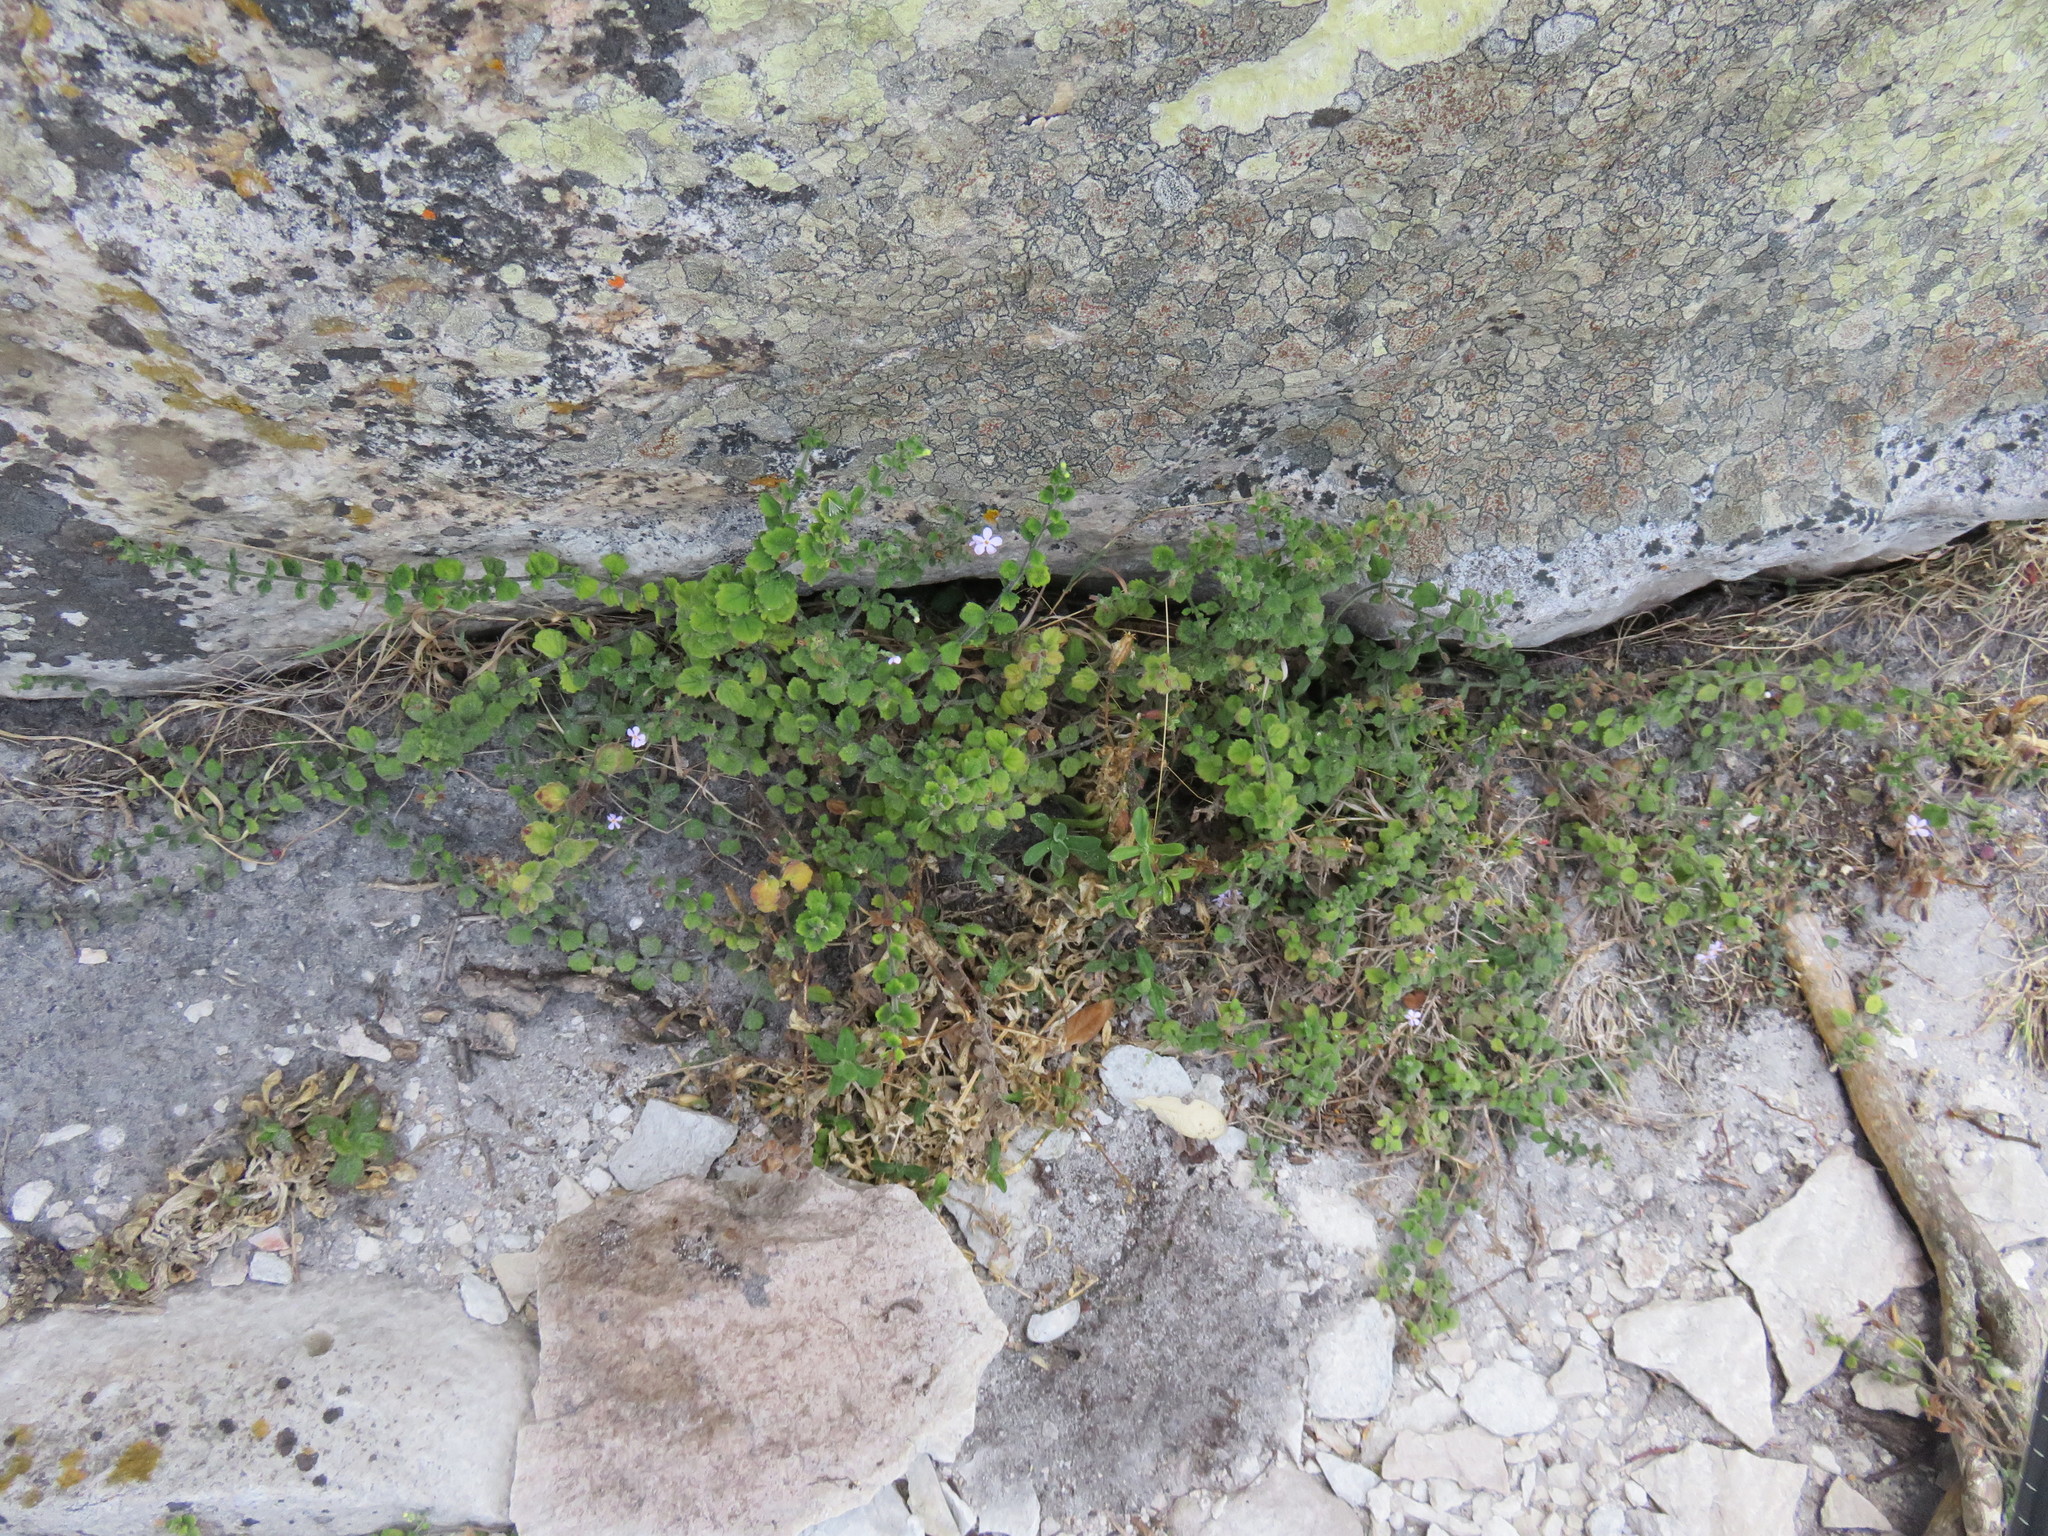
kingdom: Plantae
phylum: Tracheophyta
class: Magnoliopsida
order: Lamiales
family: Scrophulariaceae
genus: Chaenostoma
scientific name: Chaenostoma hispidum
